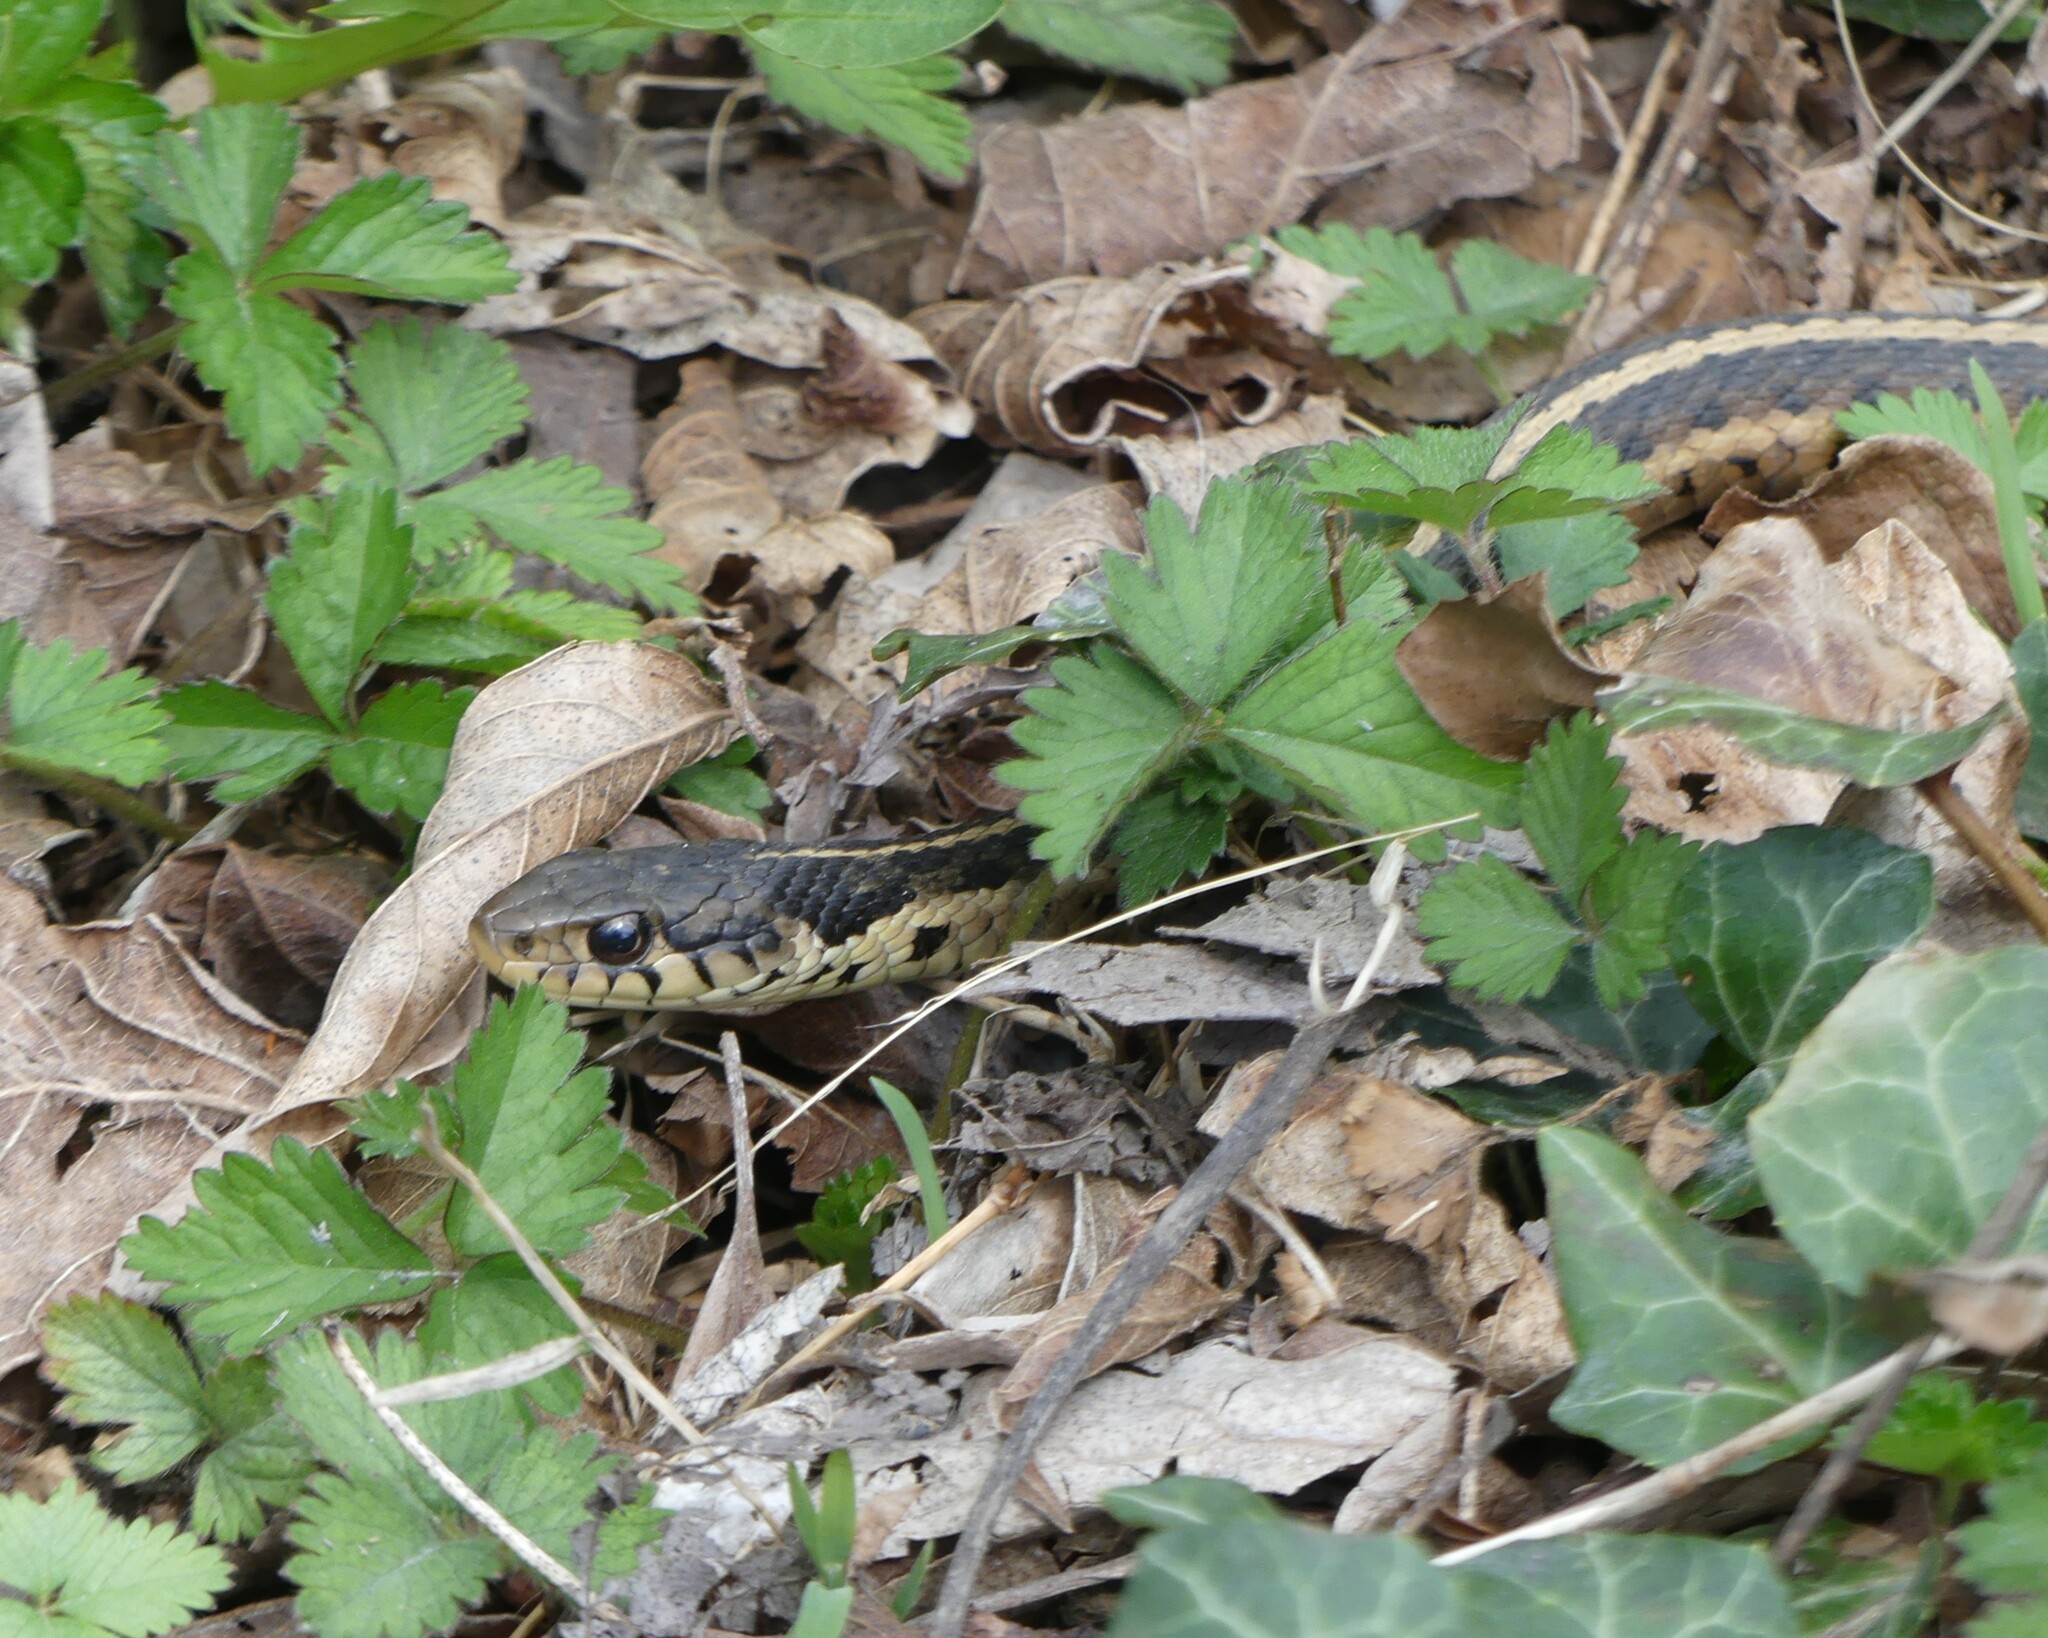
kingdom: Animalia
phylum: Chordata
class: Squamata
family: Colubridae
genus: Thamnophis
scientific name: Thamnophis sirtalis
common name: Common garter snake
